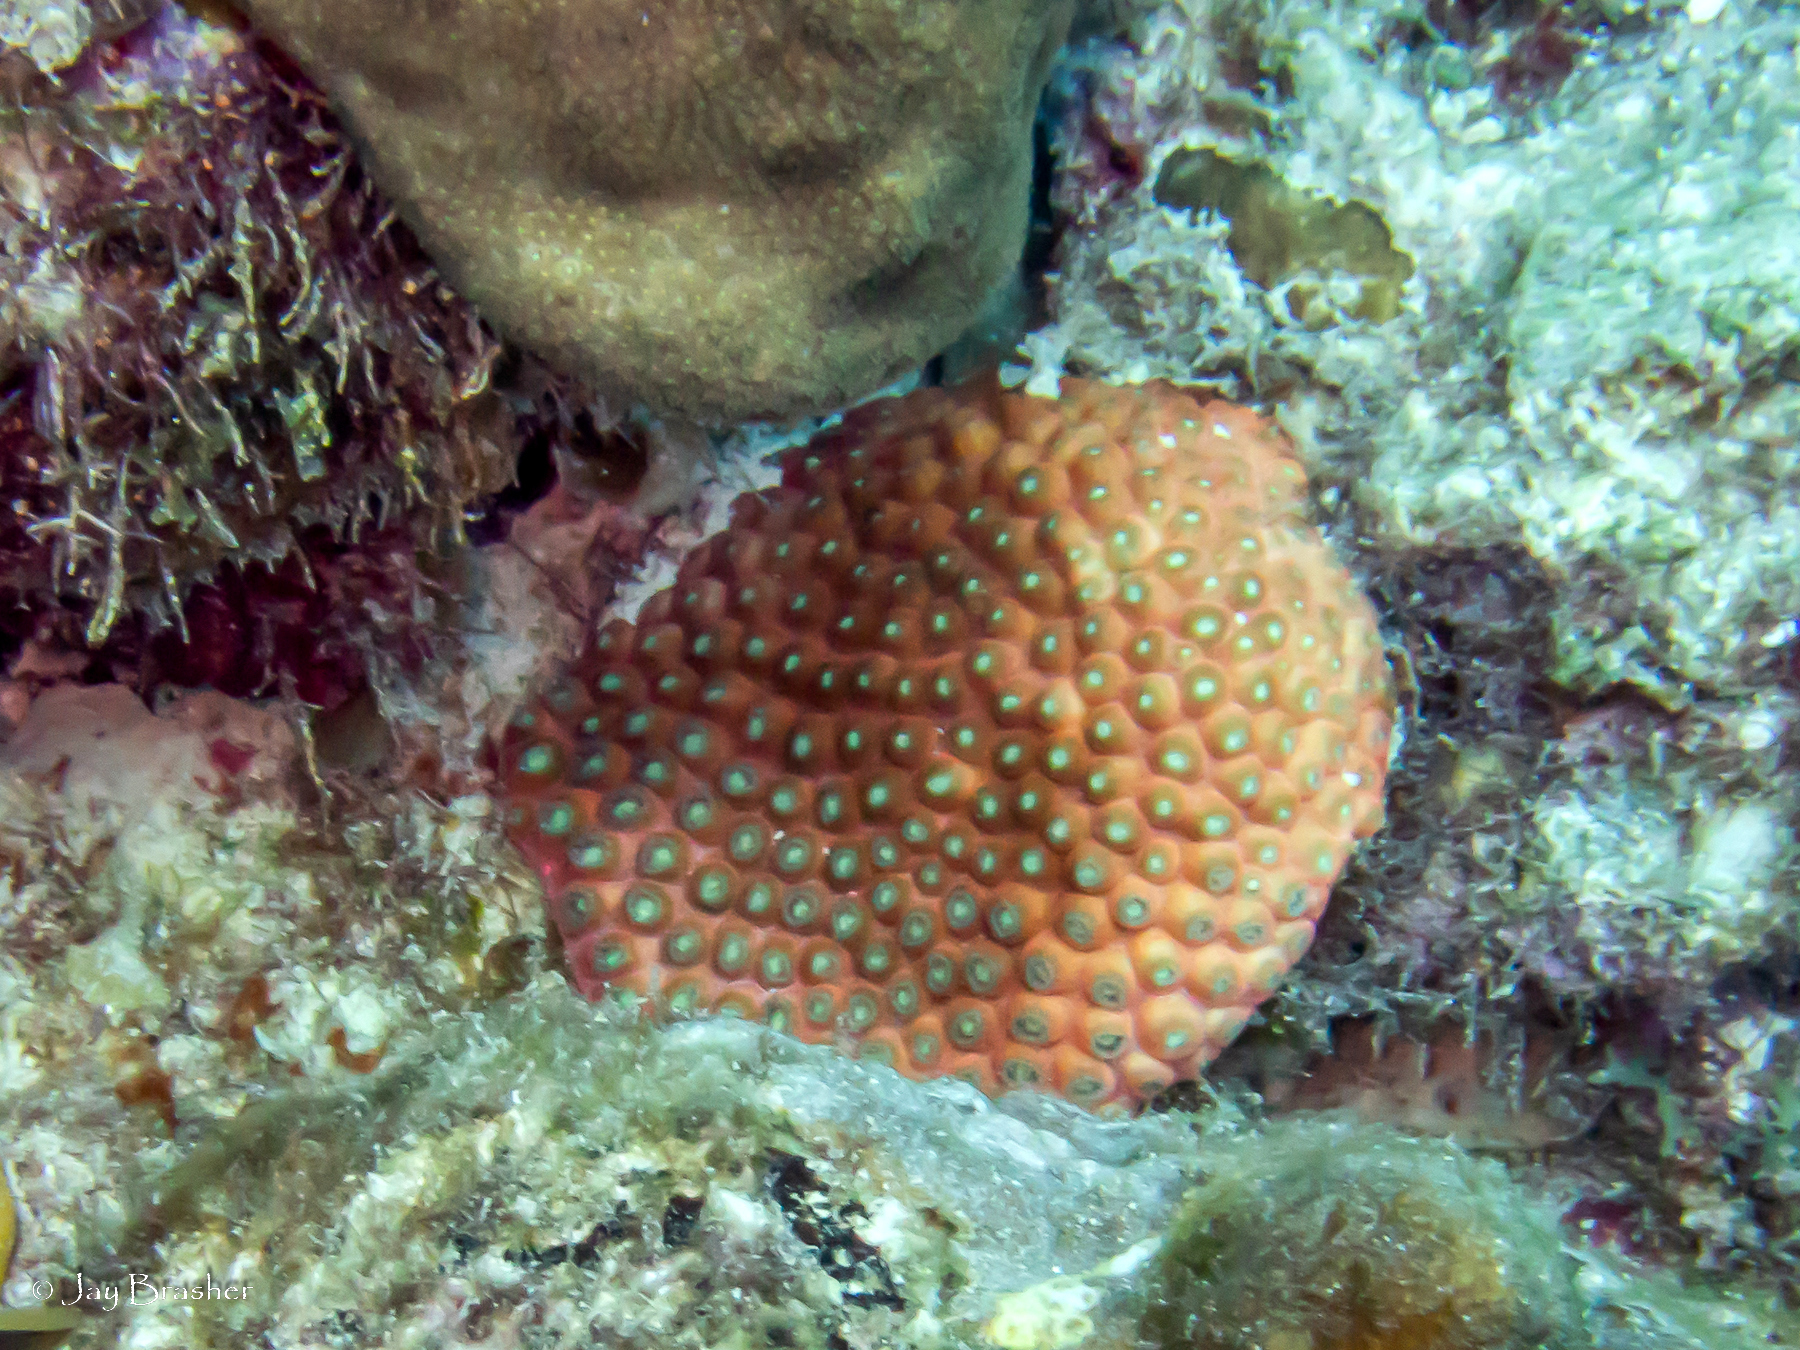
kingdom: Animalia
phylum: Cnidaria
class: Anthozoa
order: Scleractinia
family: Montastraeidae
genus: Montastraea
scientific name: Montastraea cavernosa
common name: Great star coral
